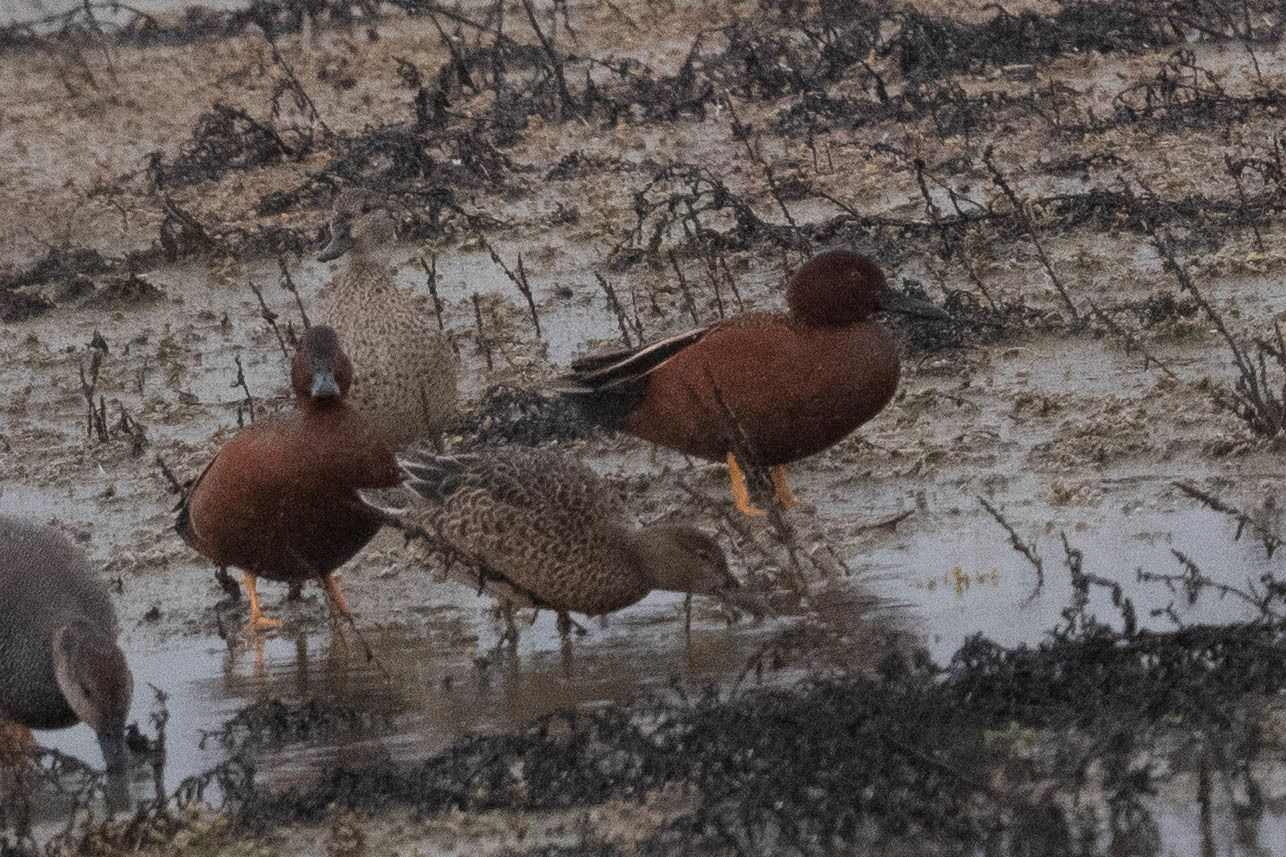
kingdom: Animalia
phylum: Chordata
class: Aves
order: Anseriformes
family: Anatidae
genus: Spatula
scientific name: Spatula cyanoptera
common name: Cinnamon teal
